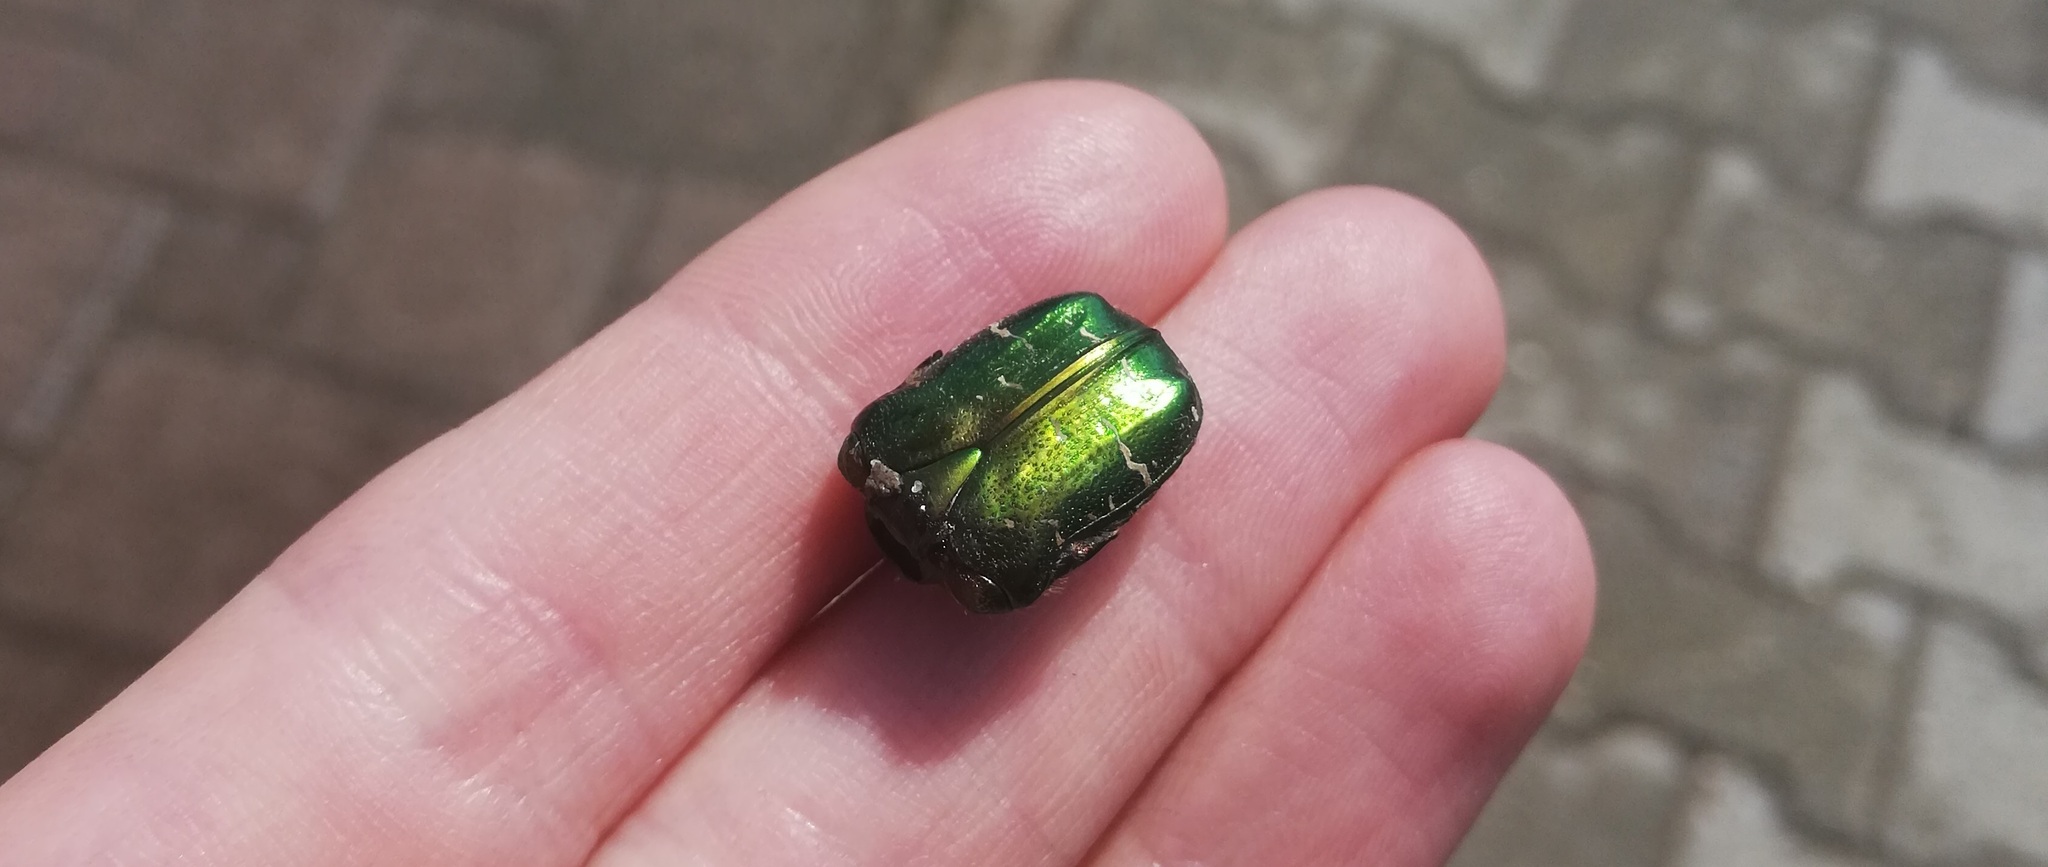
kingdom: Animalia
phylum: Arthropoda
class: Insecta
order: Coleoptera
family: Scarabaeidae
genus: Cetonia
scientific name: Cetonia aurata
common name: Rose chafer
